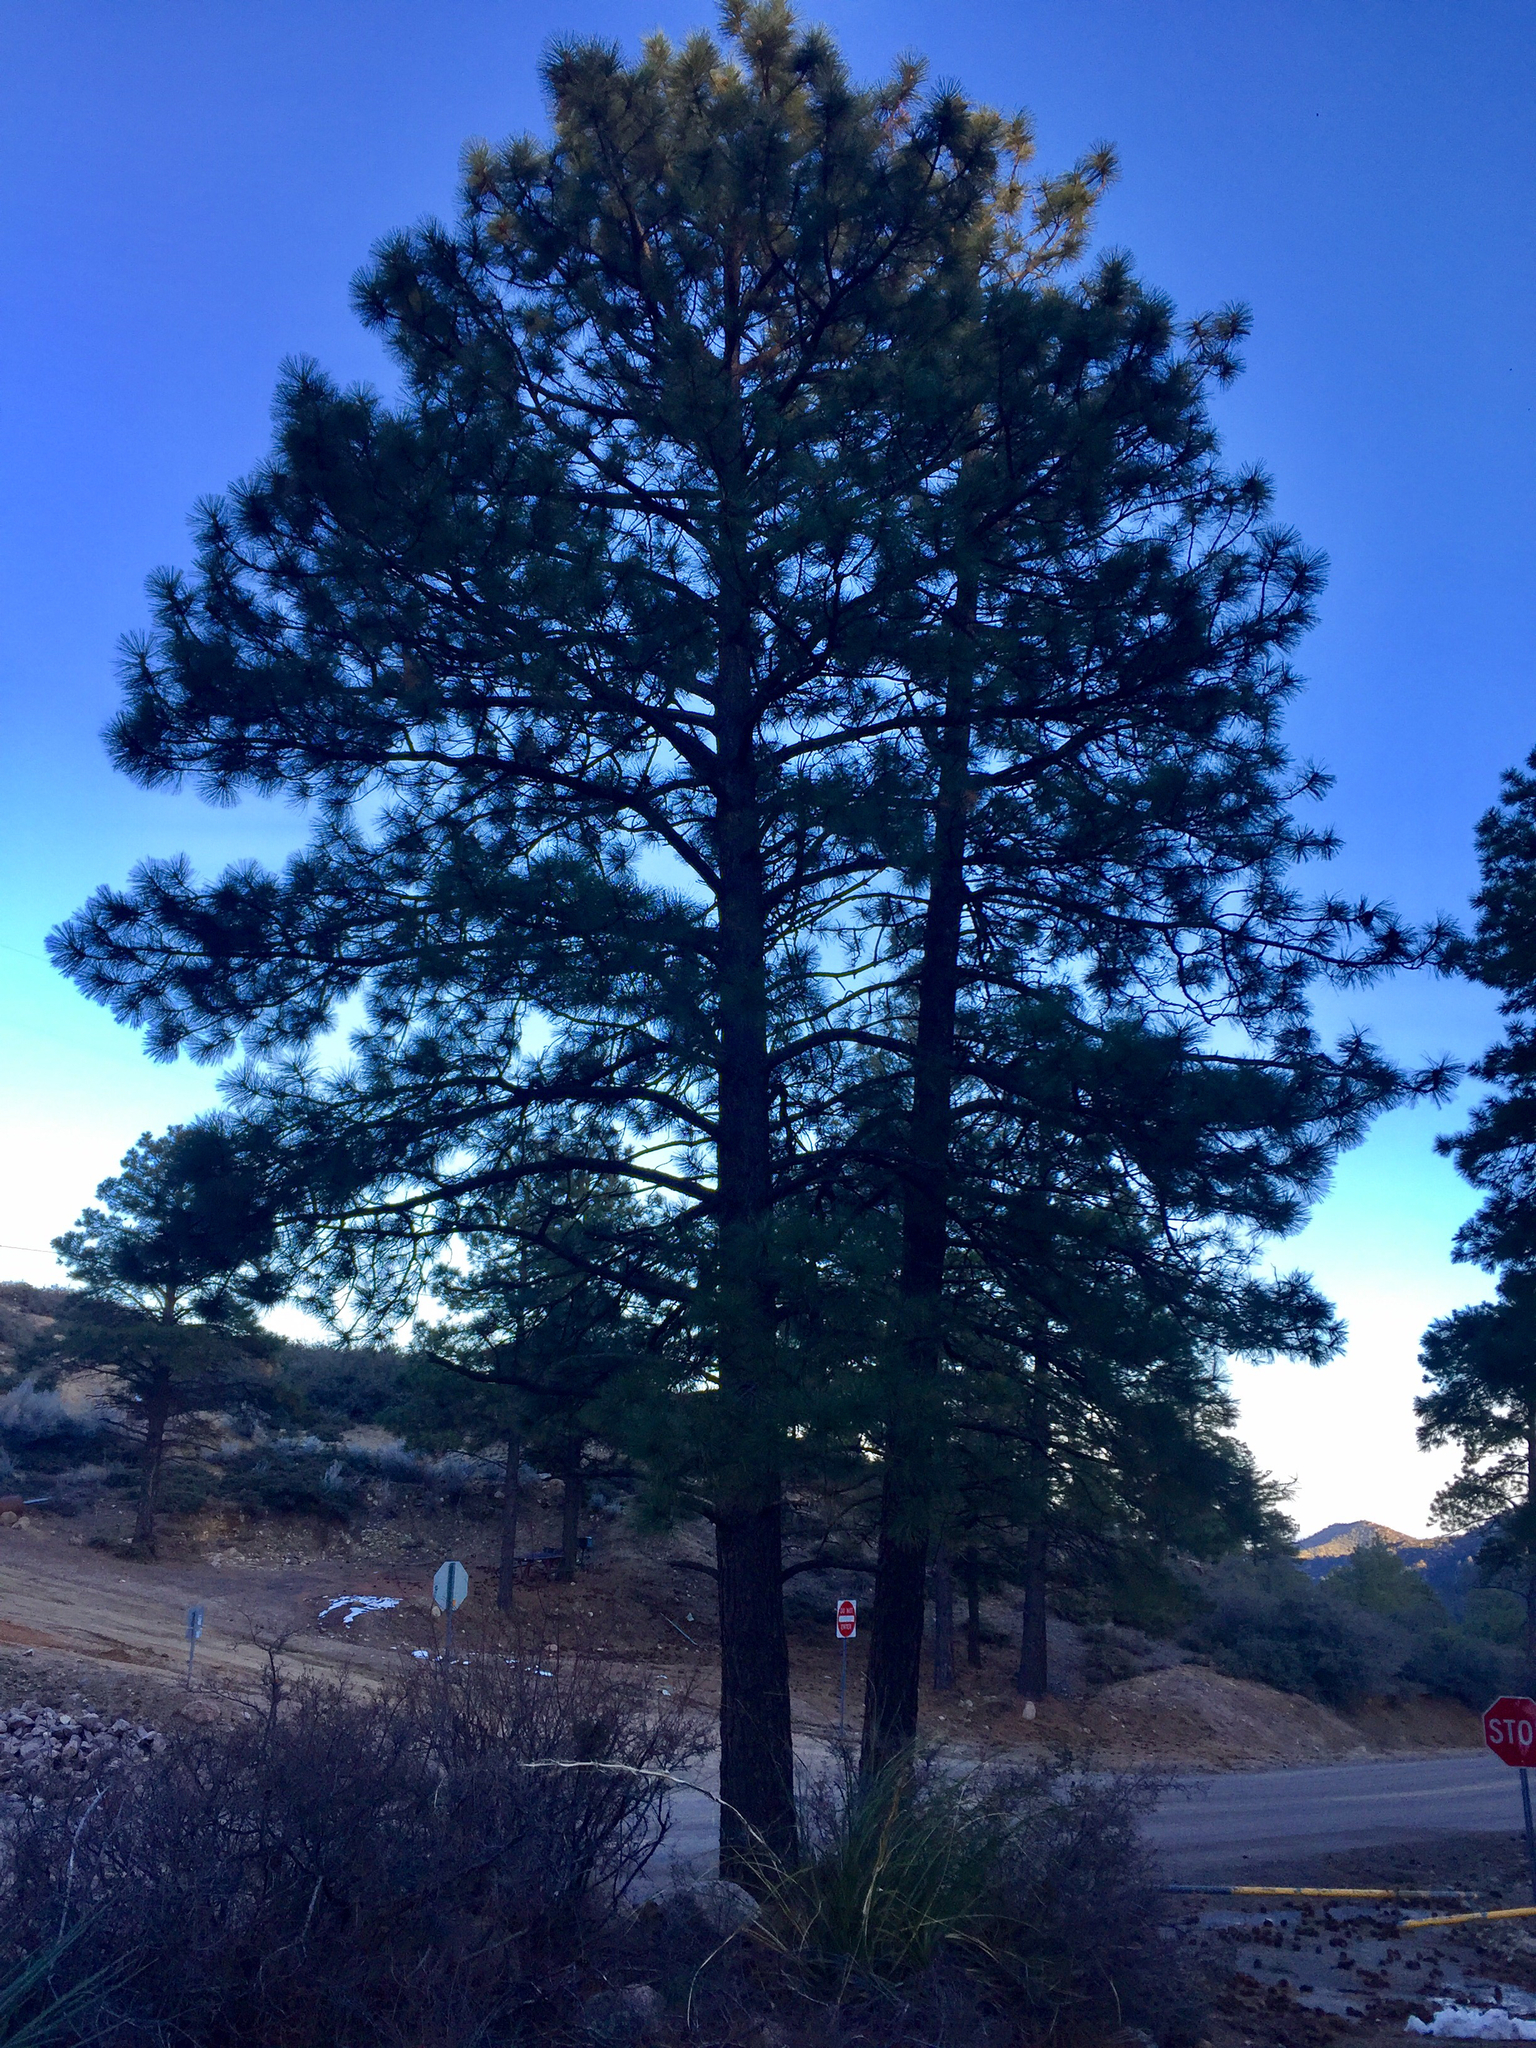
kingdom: Plantae
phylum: Tracheophyta
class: Pinopsida
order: Pinales
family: Pinaceae
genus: Pinus
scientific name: Pinus ponderosa
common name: Western yellow-pine
